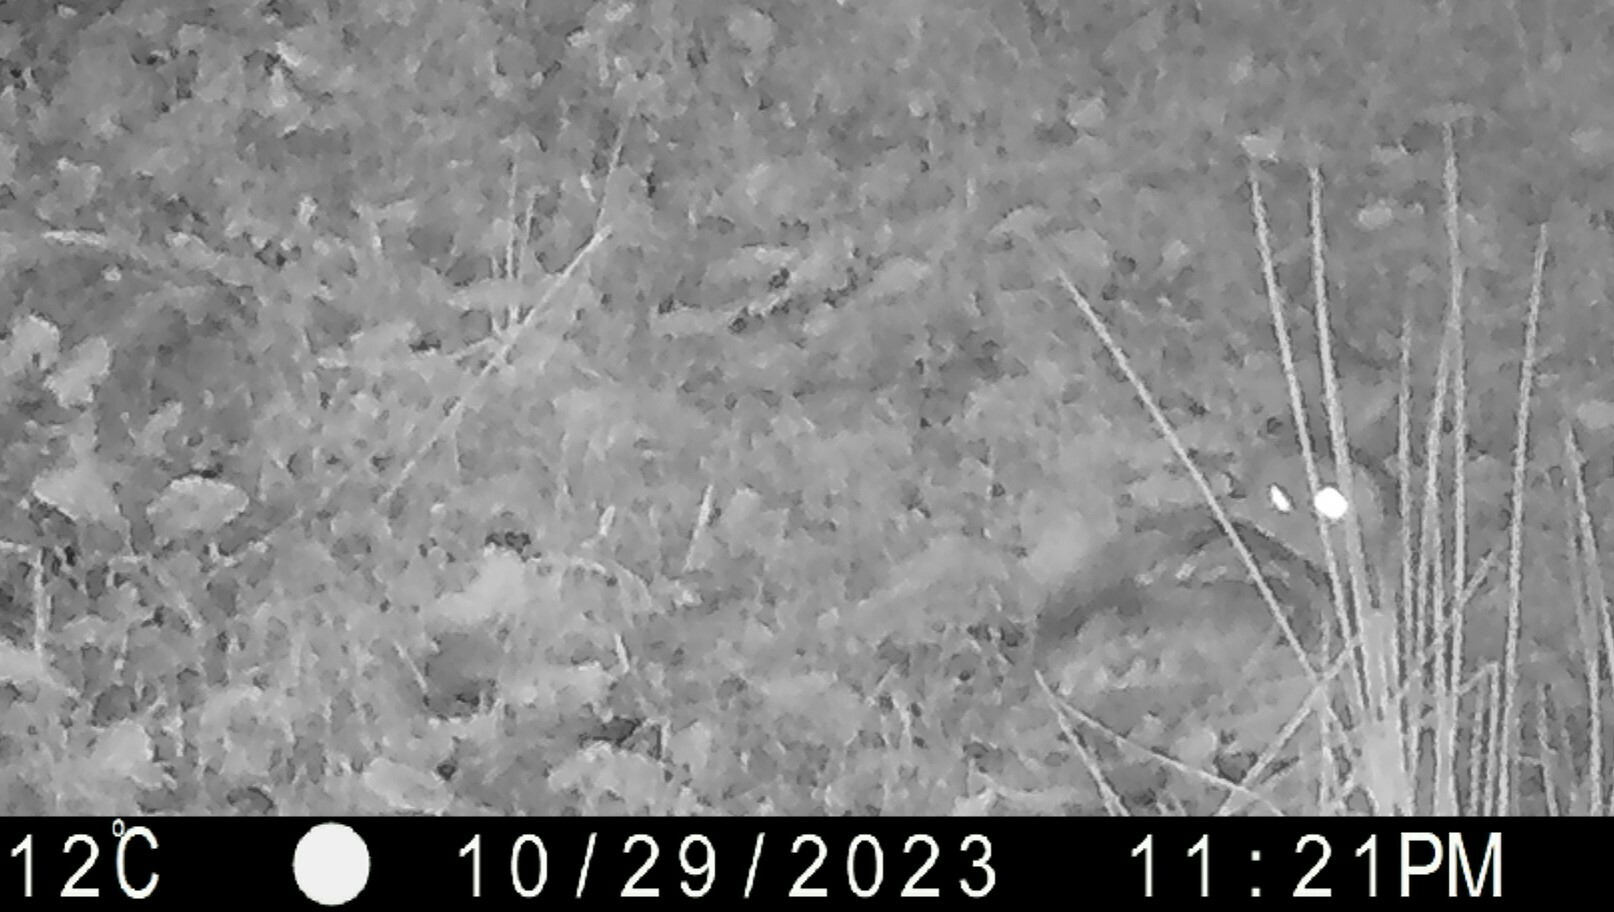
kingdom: Animalia
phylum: Chordata
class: Aves
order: Strigiformes
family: Strigidae
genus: Strix
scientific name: Strix aluco
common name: Tawny owl
